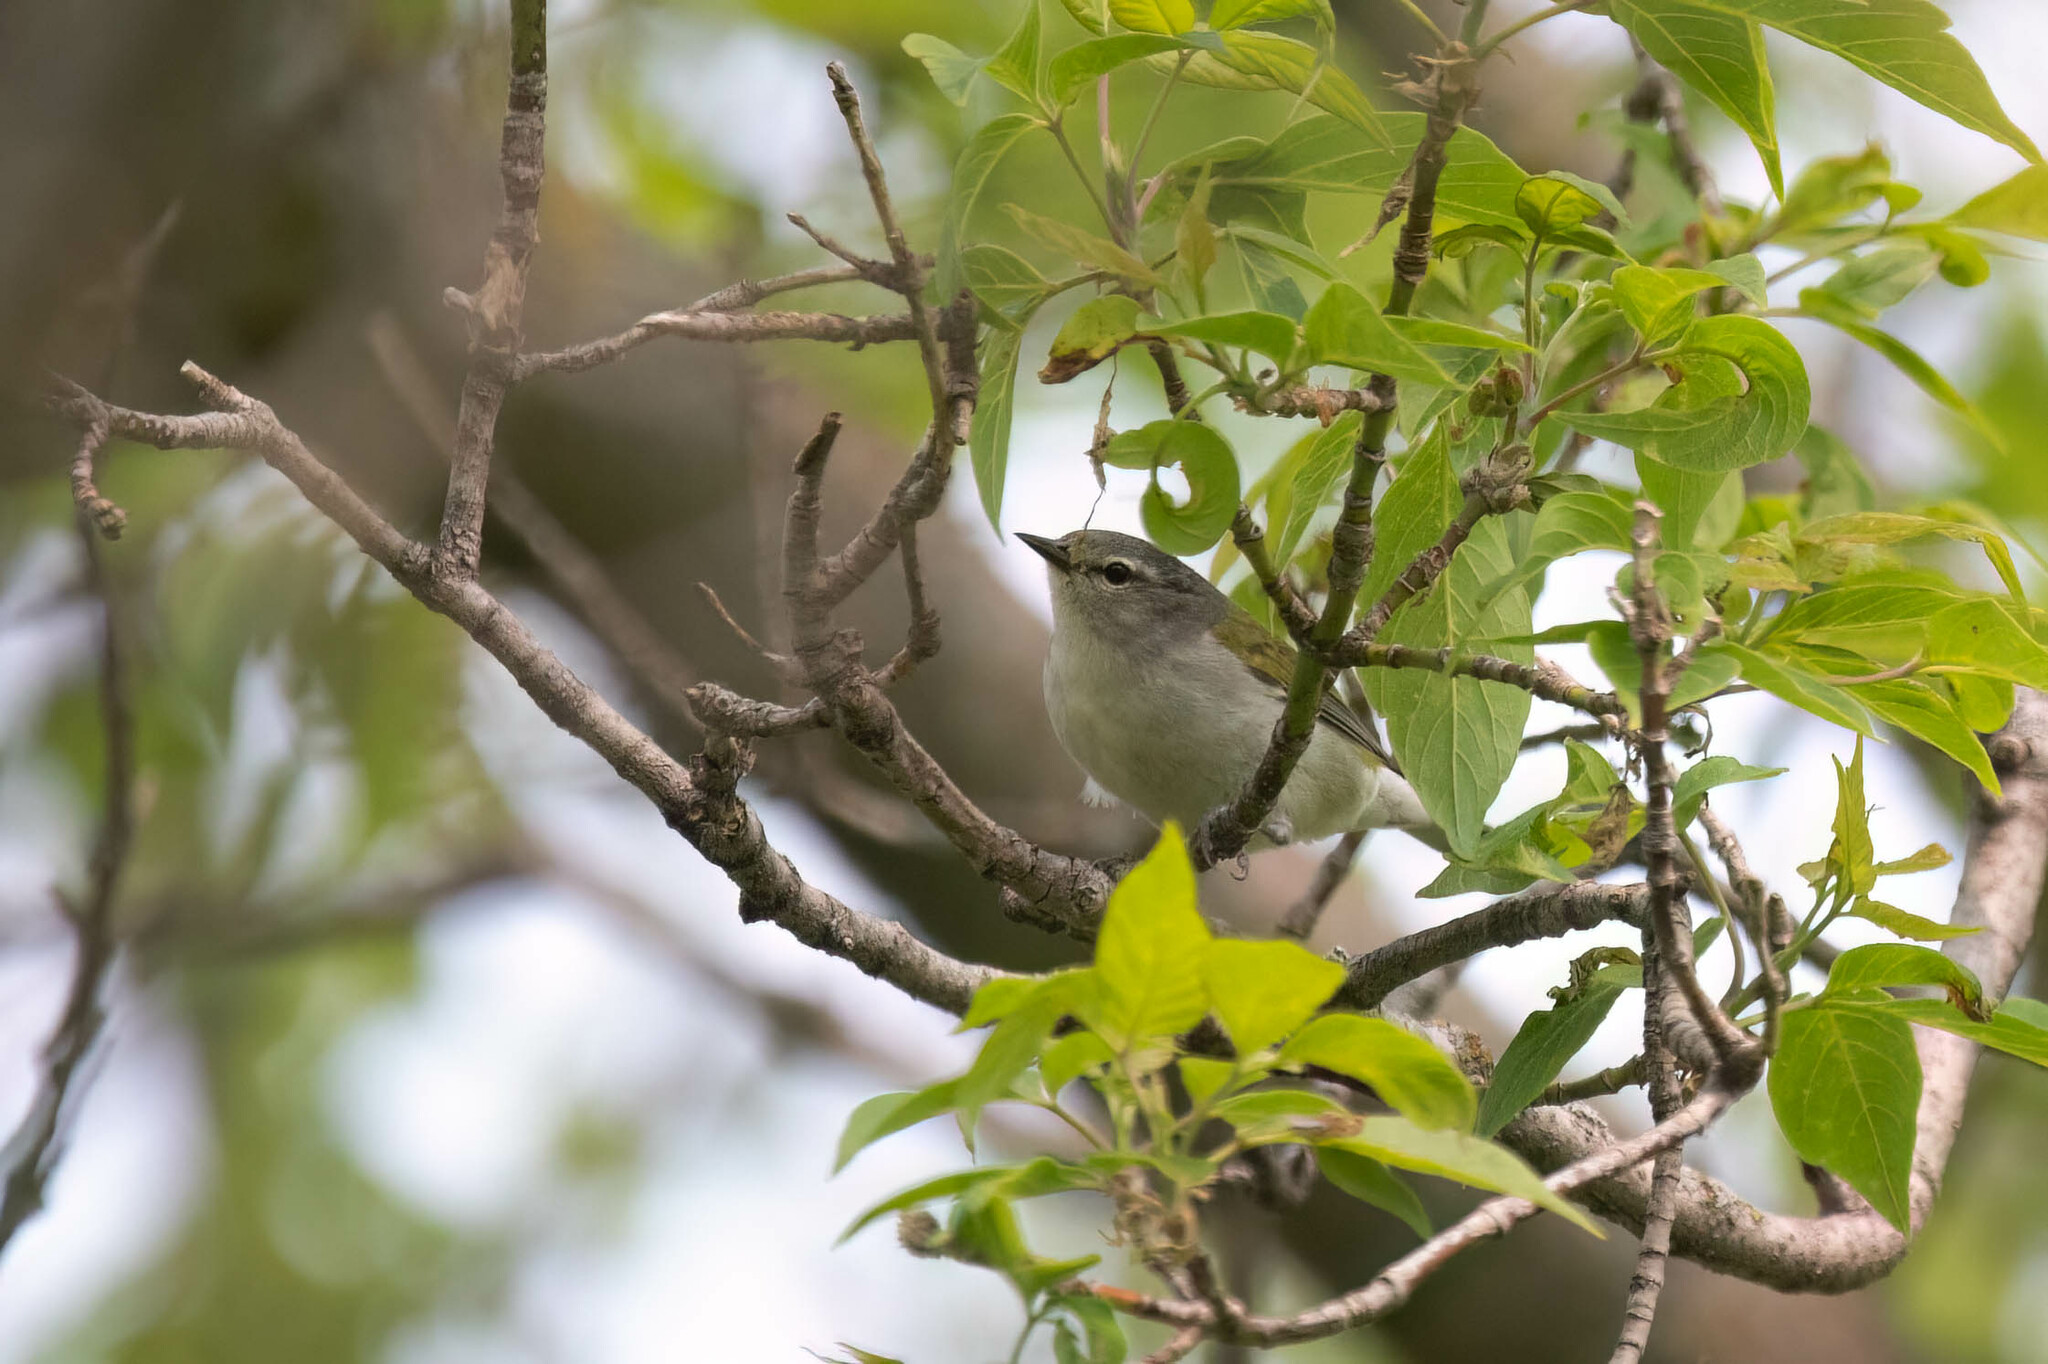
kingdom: Animalia
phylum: Chordata
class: Aves
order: Passeriformes
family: Parulidae
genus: Leiothlypis
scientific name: Leiothlypis peregrina
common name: Tennessee warbler
